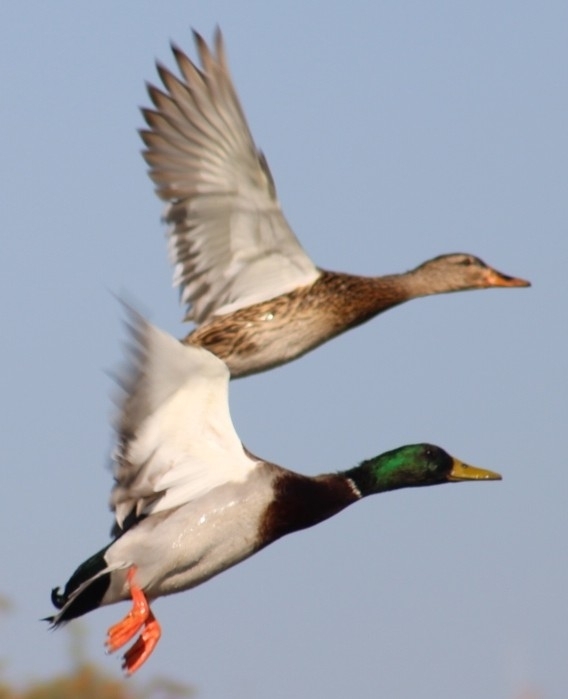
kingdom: Animalia
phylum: Chordata
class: Aves
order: Anseriformes
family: Anatidae
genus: Anas
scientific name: Anas platyrhynchos
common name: Mallard
